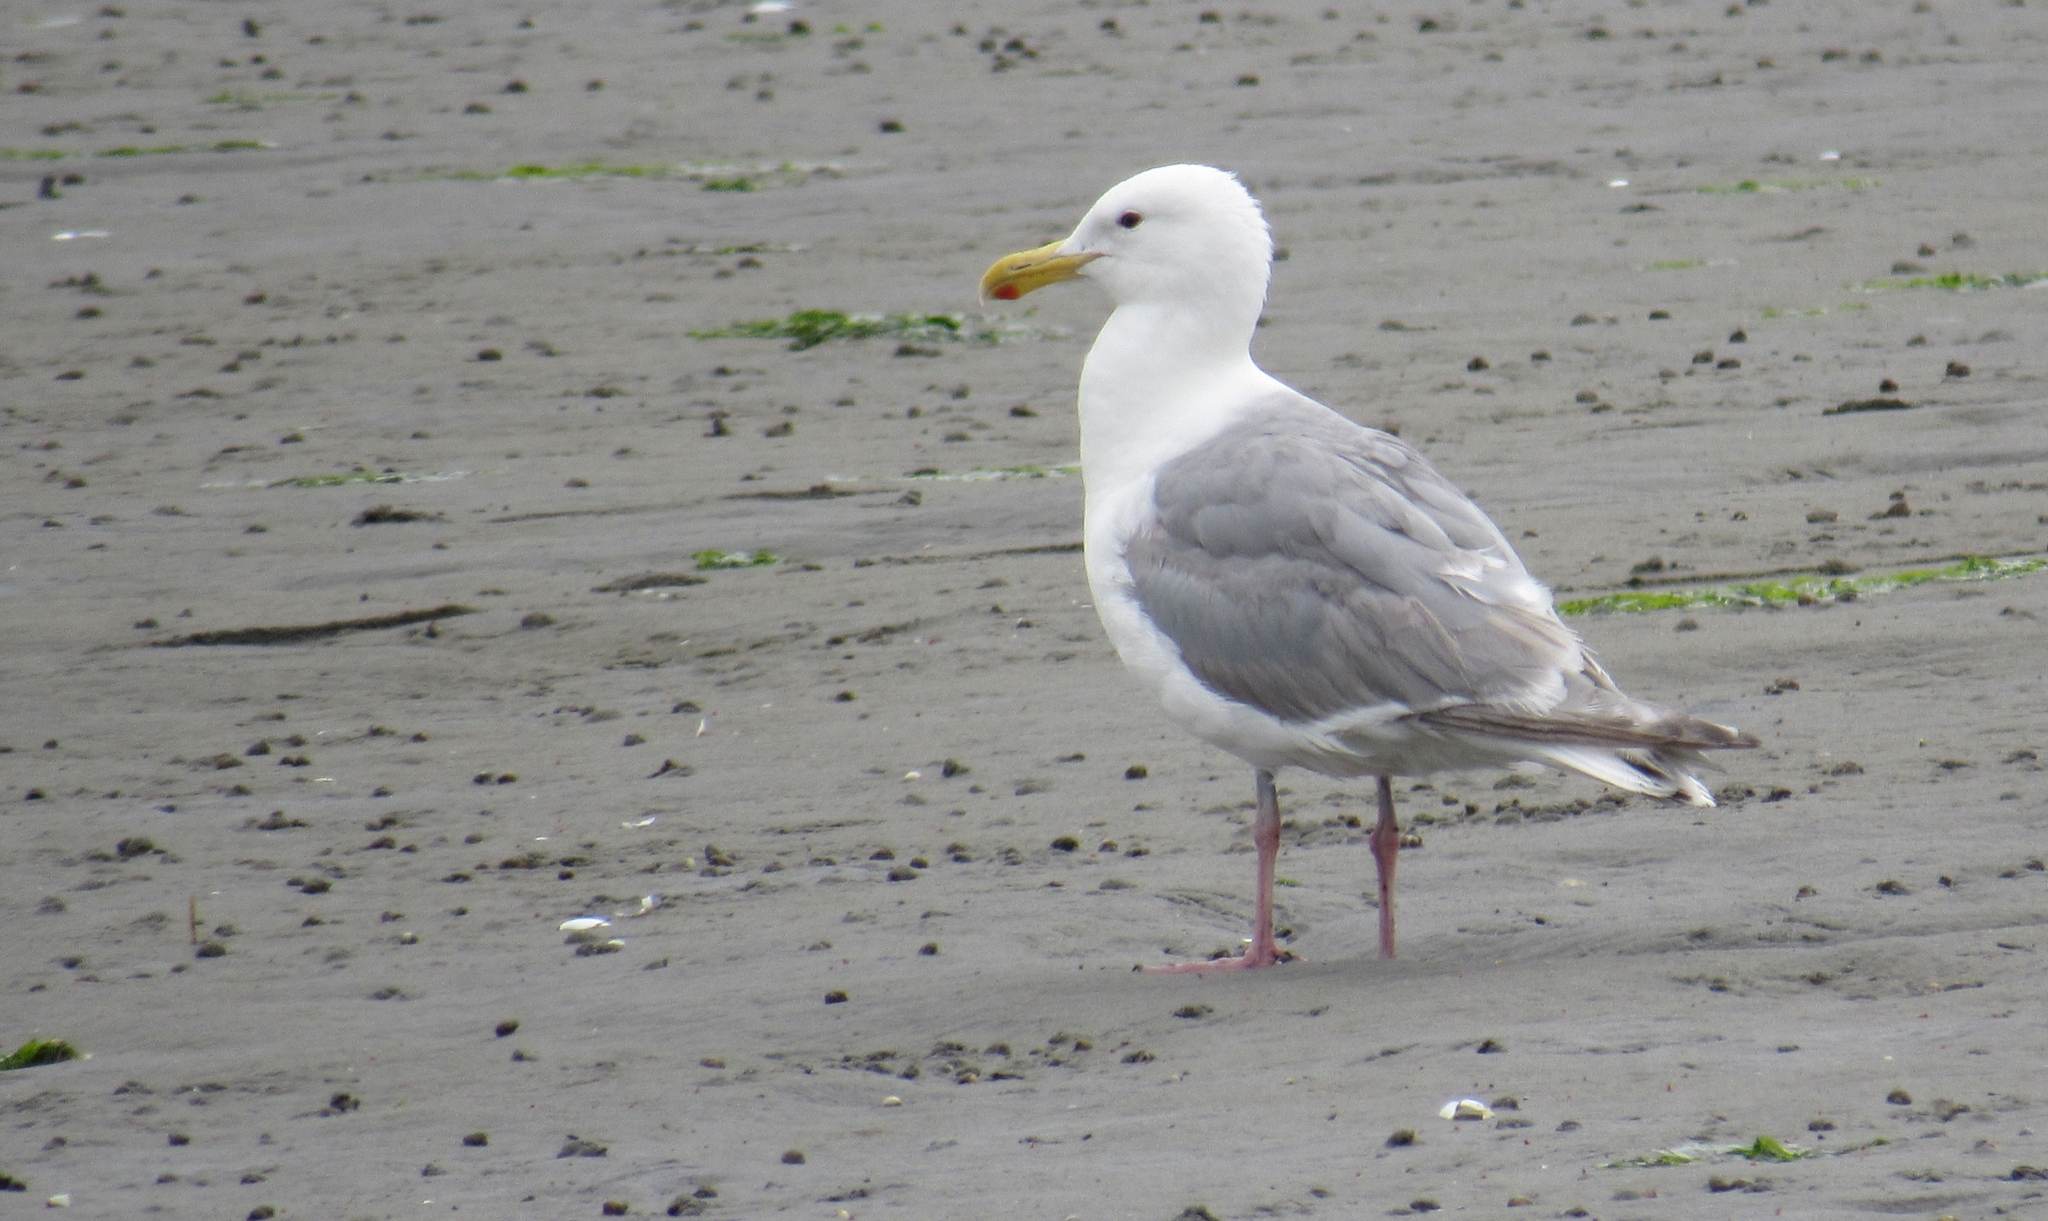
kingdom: Animalia
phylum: Chordata
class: Aves
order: Charadriiformes
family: Laridae
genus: Larus
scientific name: Larus glaucescens
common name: Glaucous-winged gull
